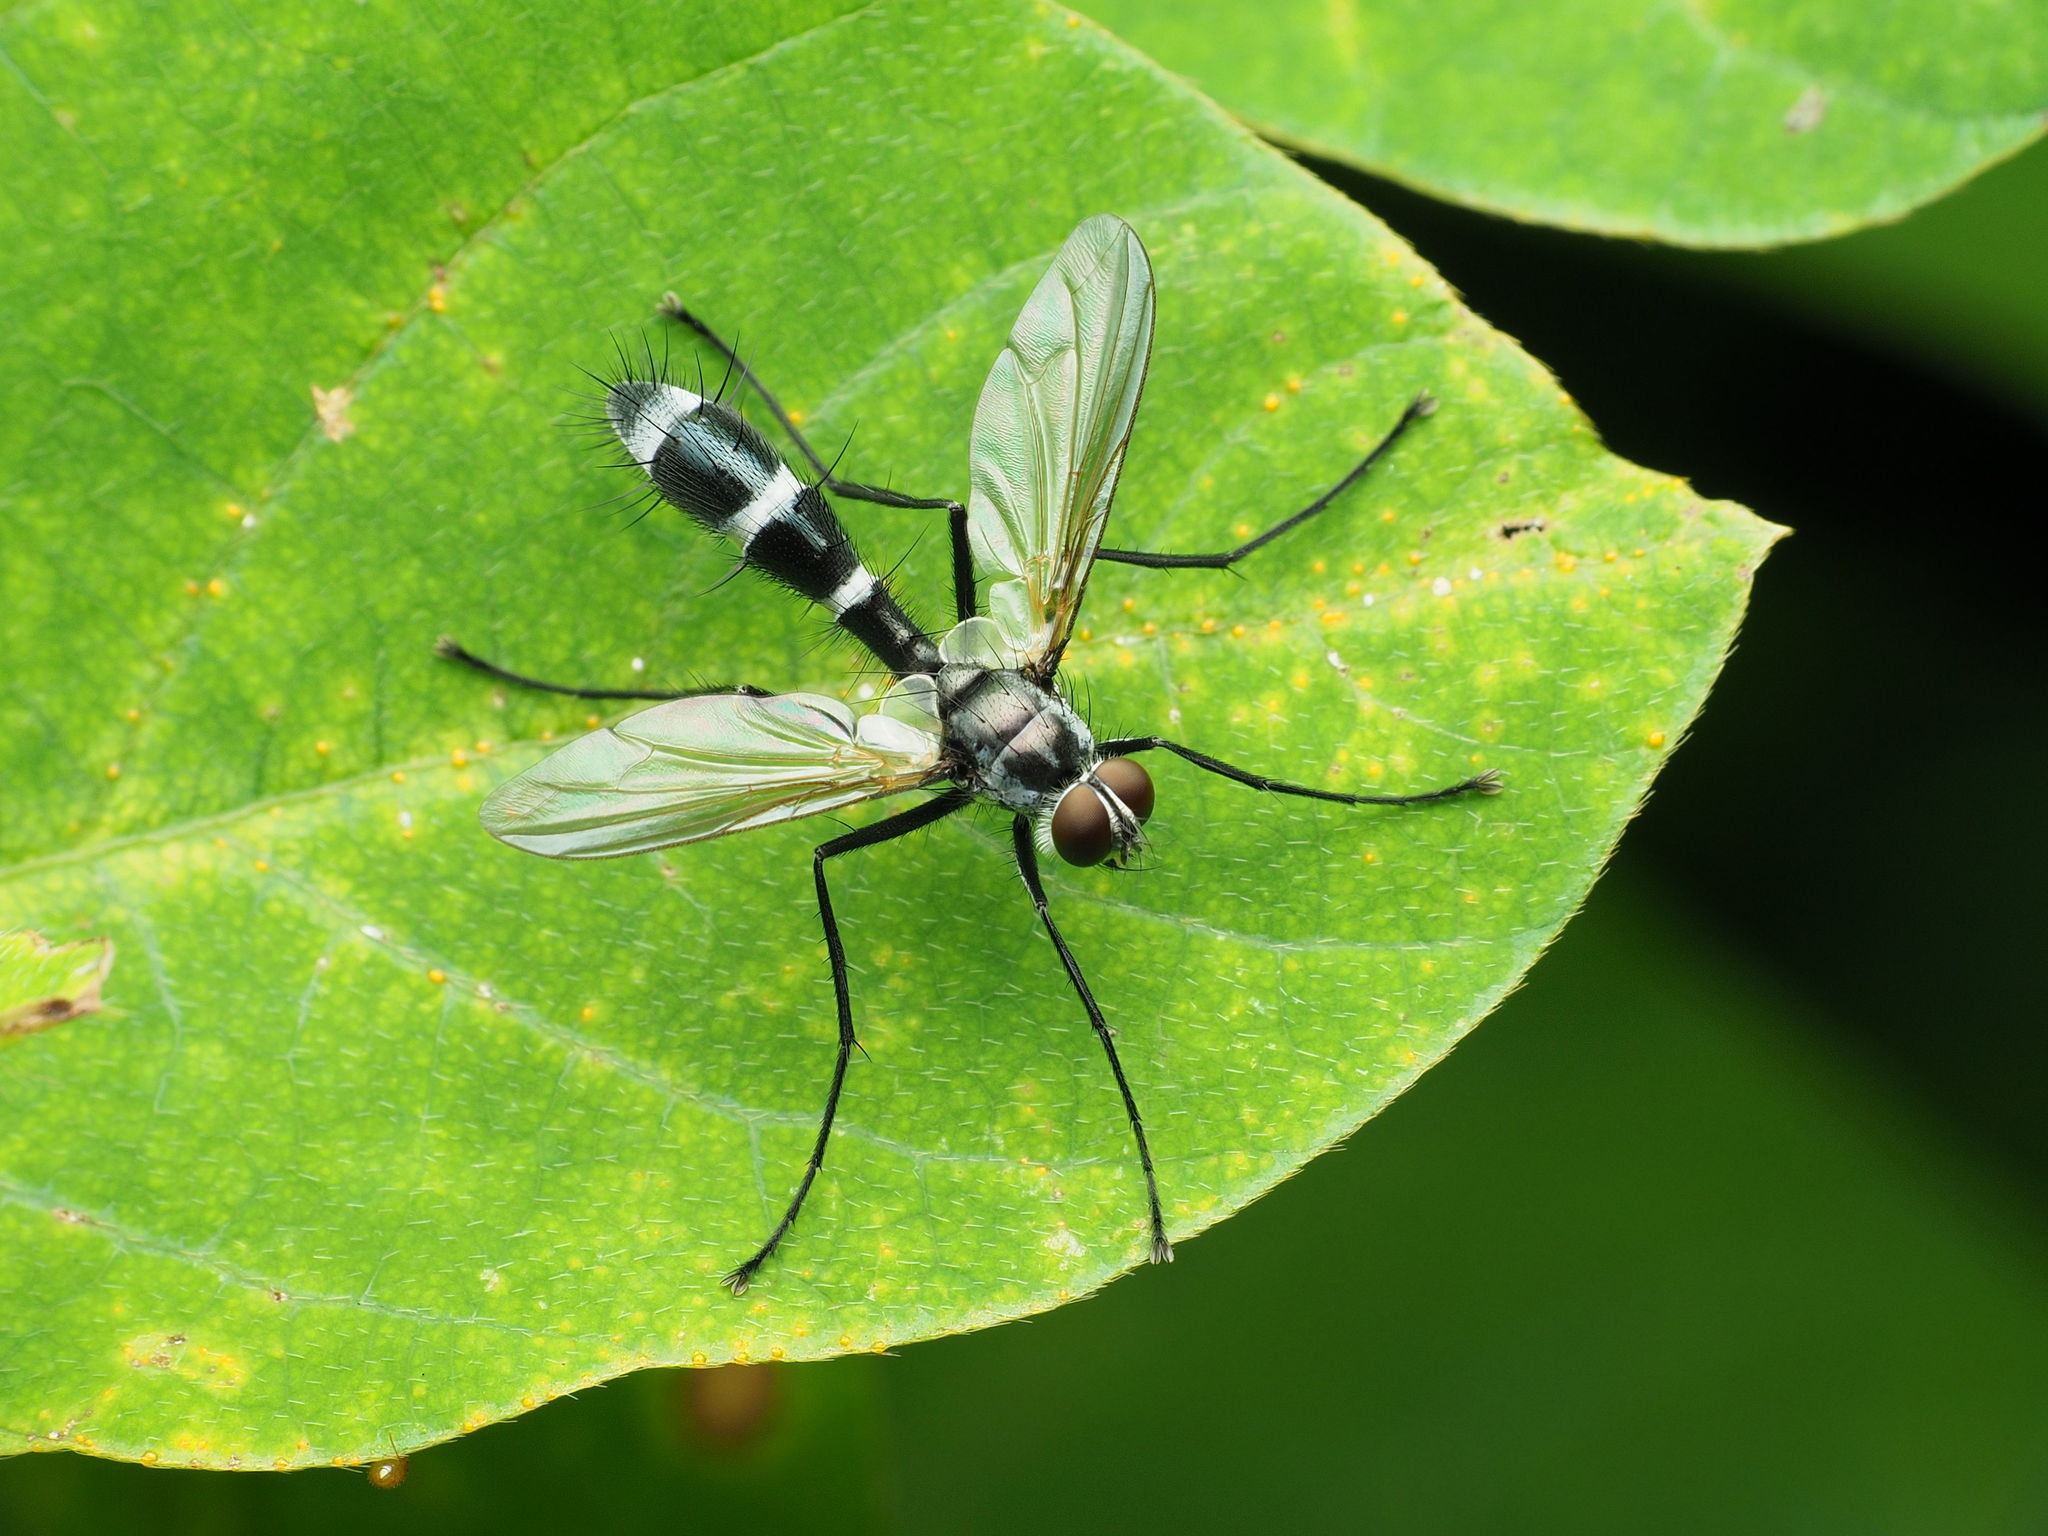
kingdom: Animalia
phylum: Arthropoda
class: Insecta
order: Diptera
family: Tachinidae
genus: Cordyligaster
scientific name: Cordyligaster septentrionalis
